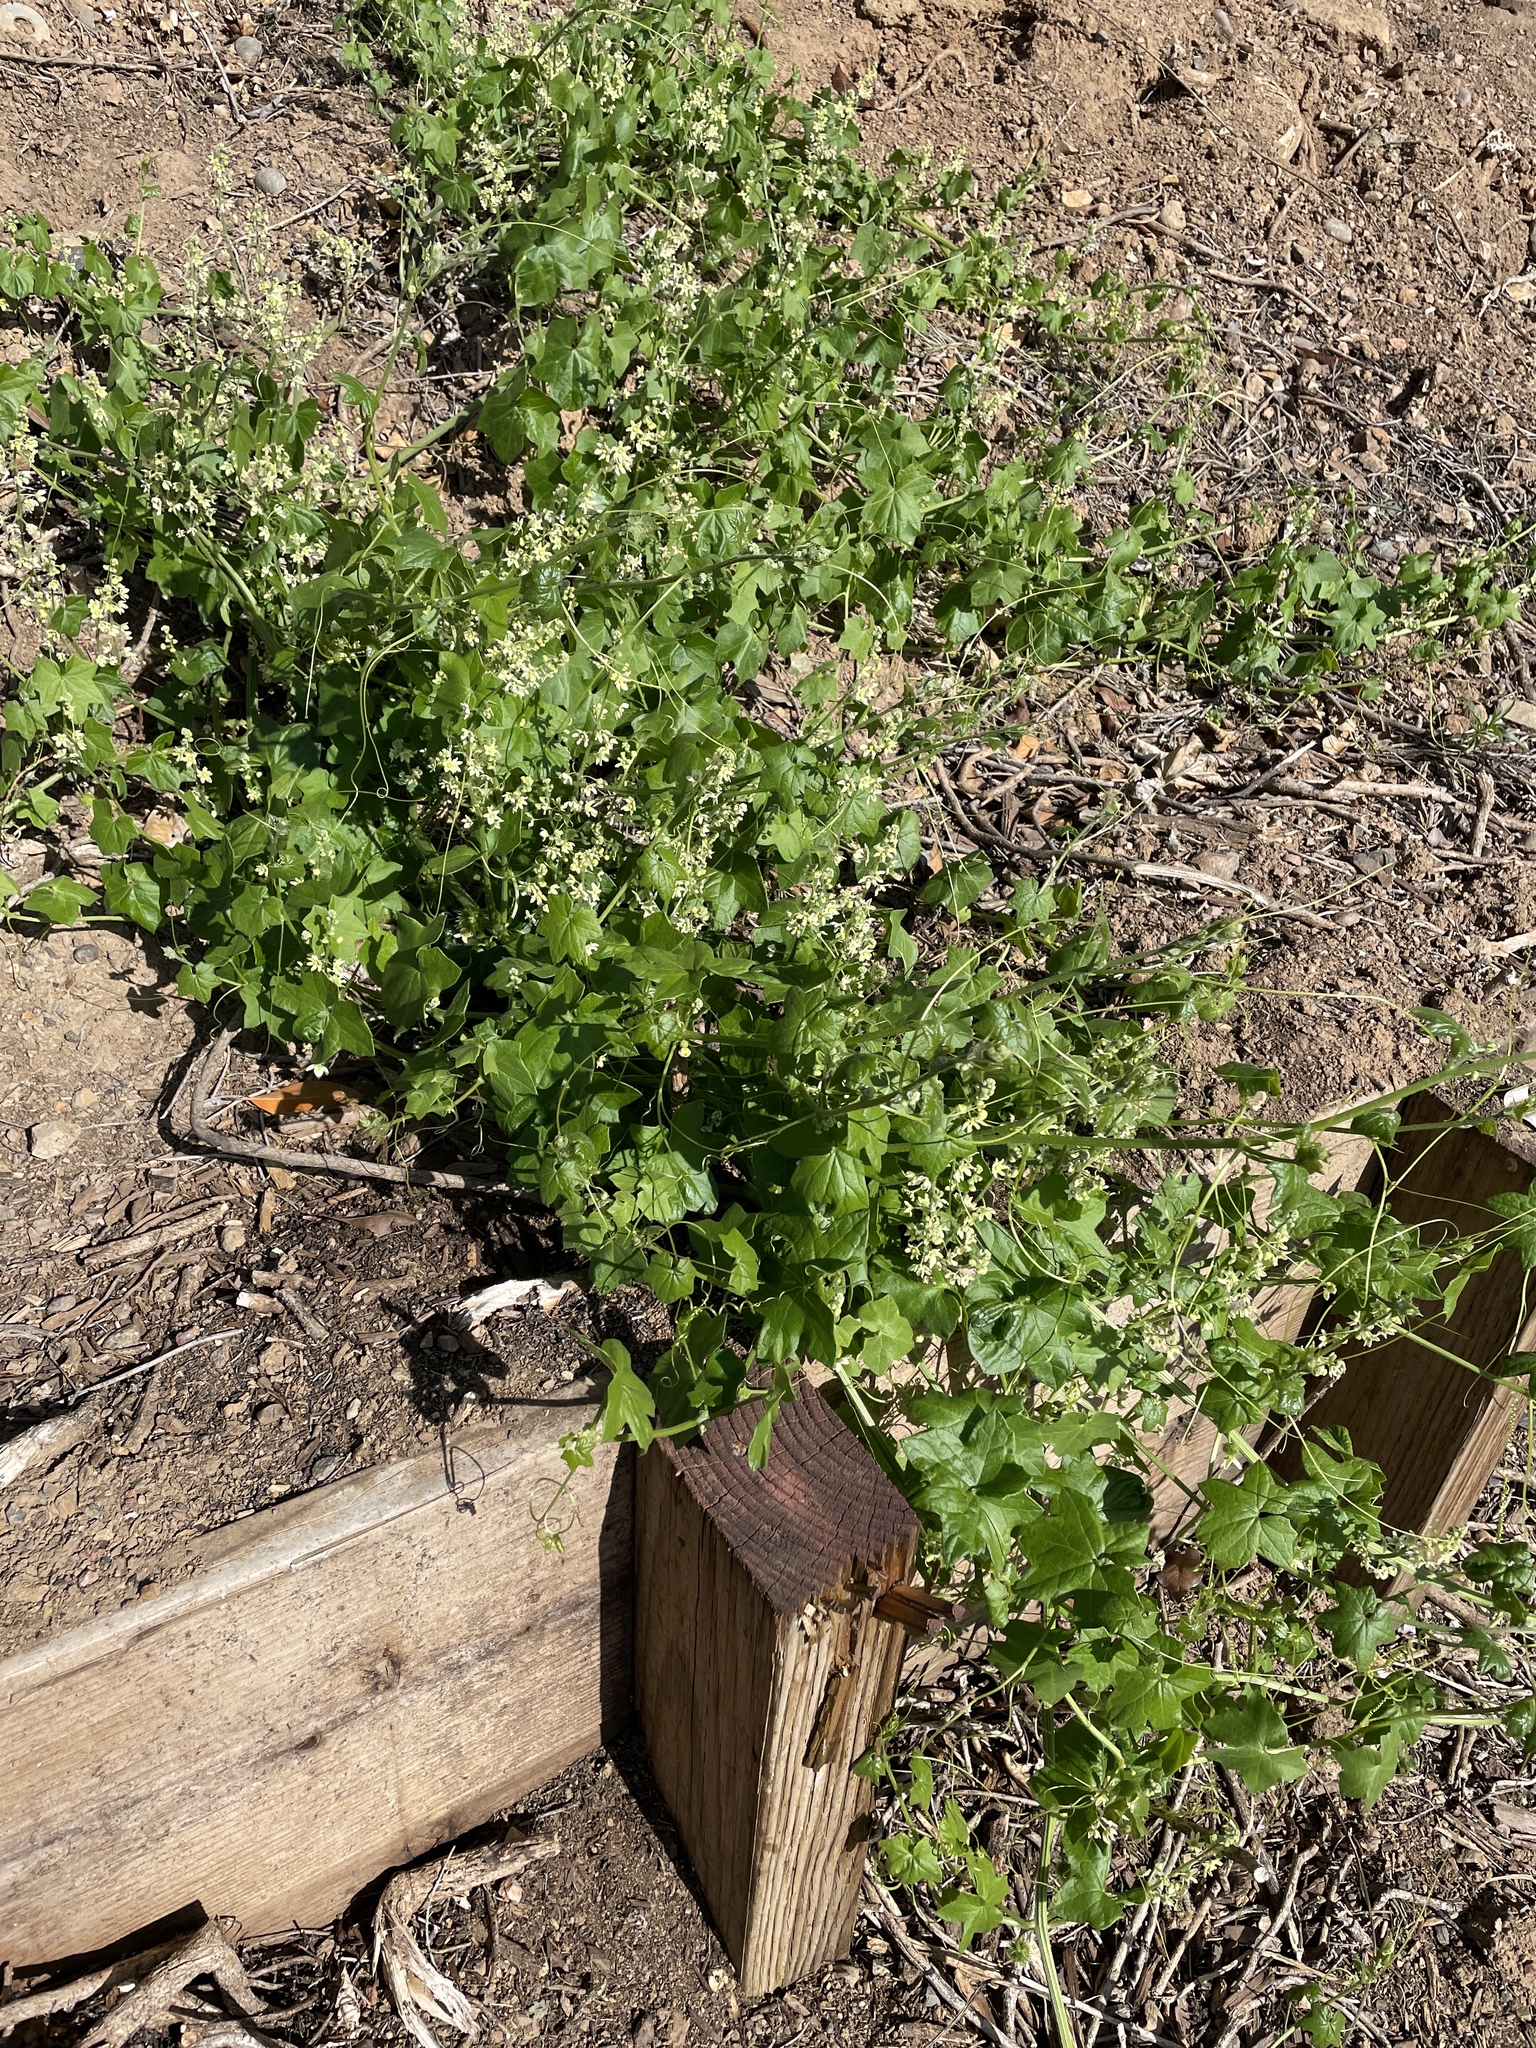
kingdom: Plantae
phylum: Tracheophyta
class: Magnoliopsida
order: Cucurbitales
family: Cucurbitaceae
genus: Marah
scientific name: Marah fabacea
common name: California manroot
